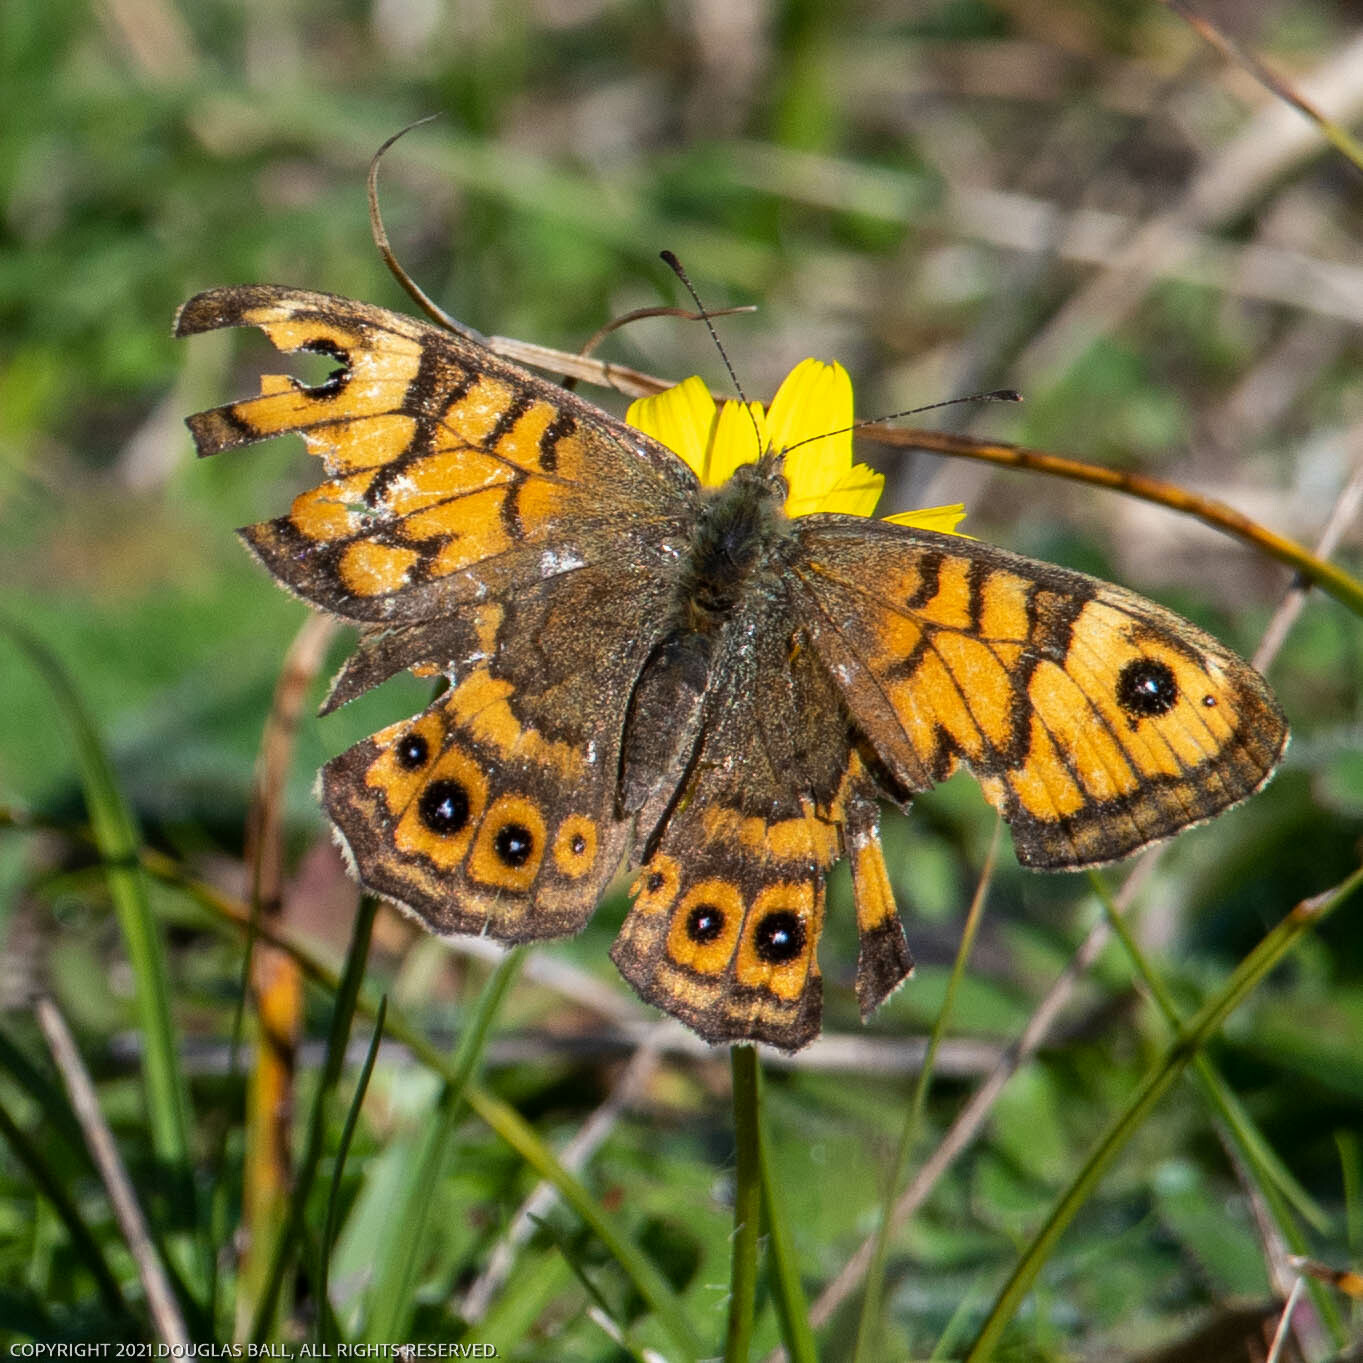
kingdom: Animalia
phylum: Arthropoda
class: Insecta
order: Lepidoptera
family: Nymphalidae
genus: Pararge
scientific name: Pararge Lasiommata megera
